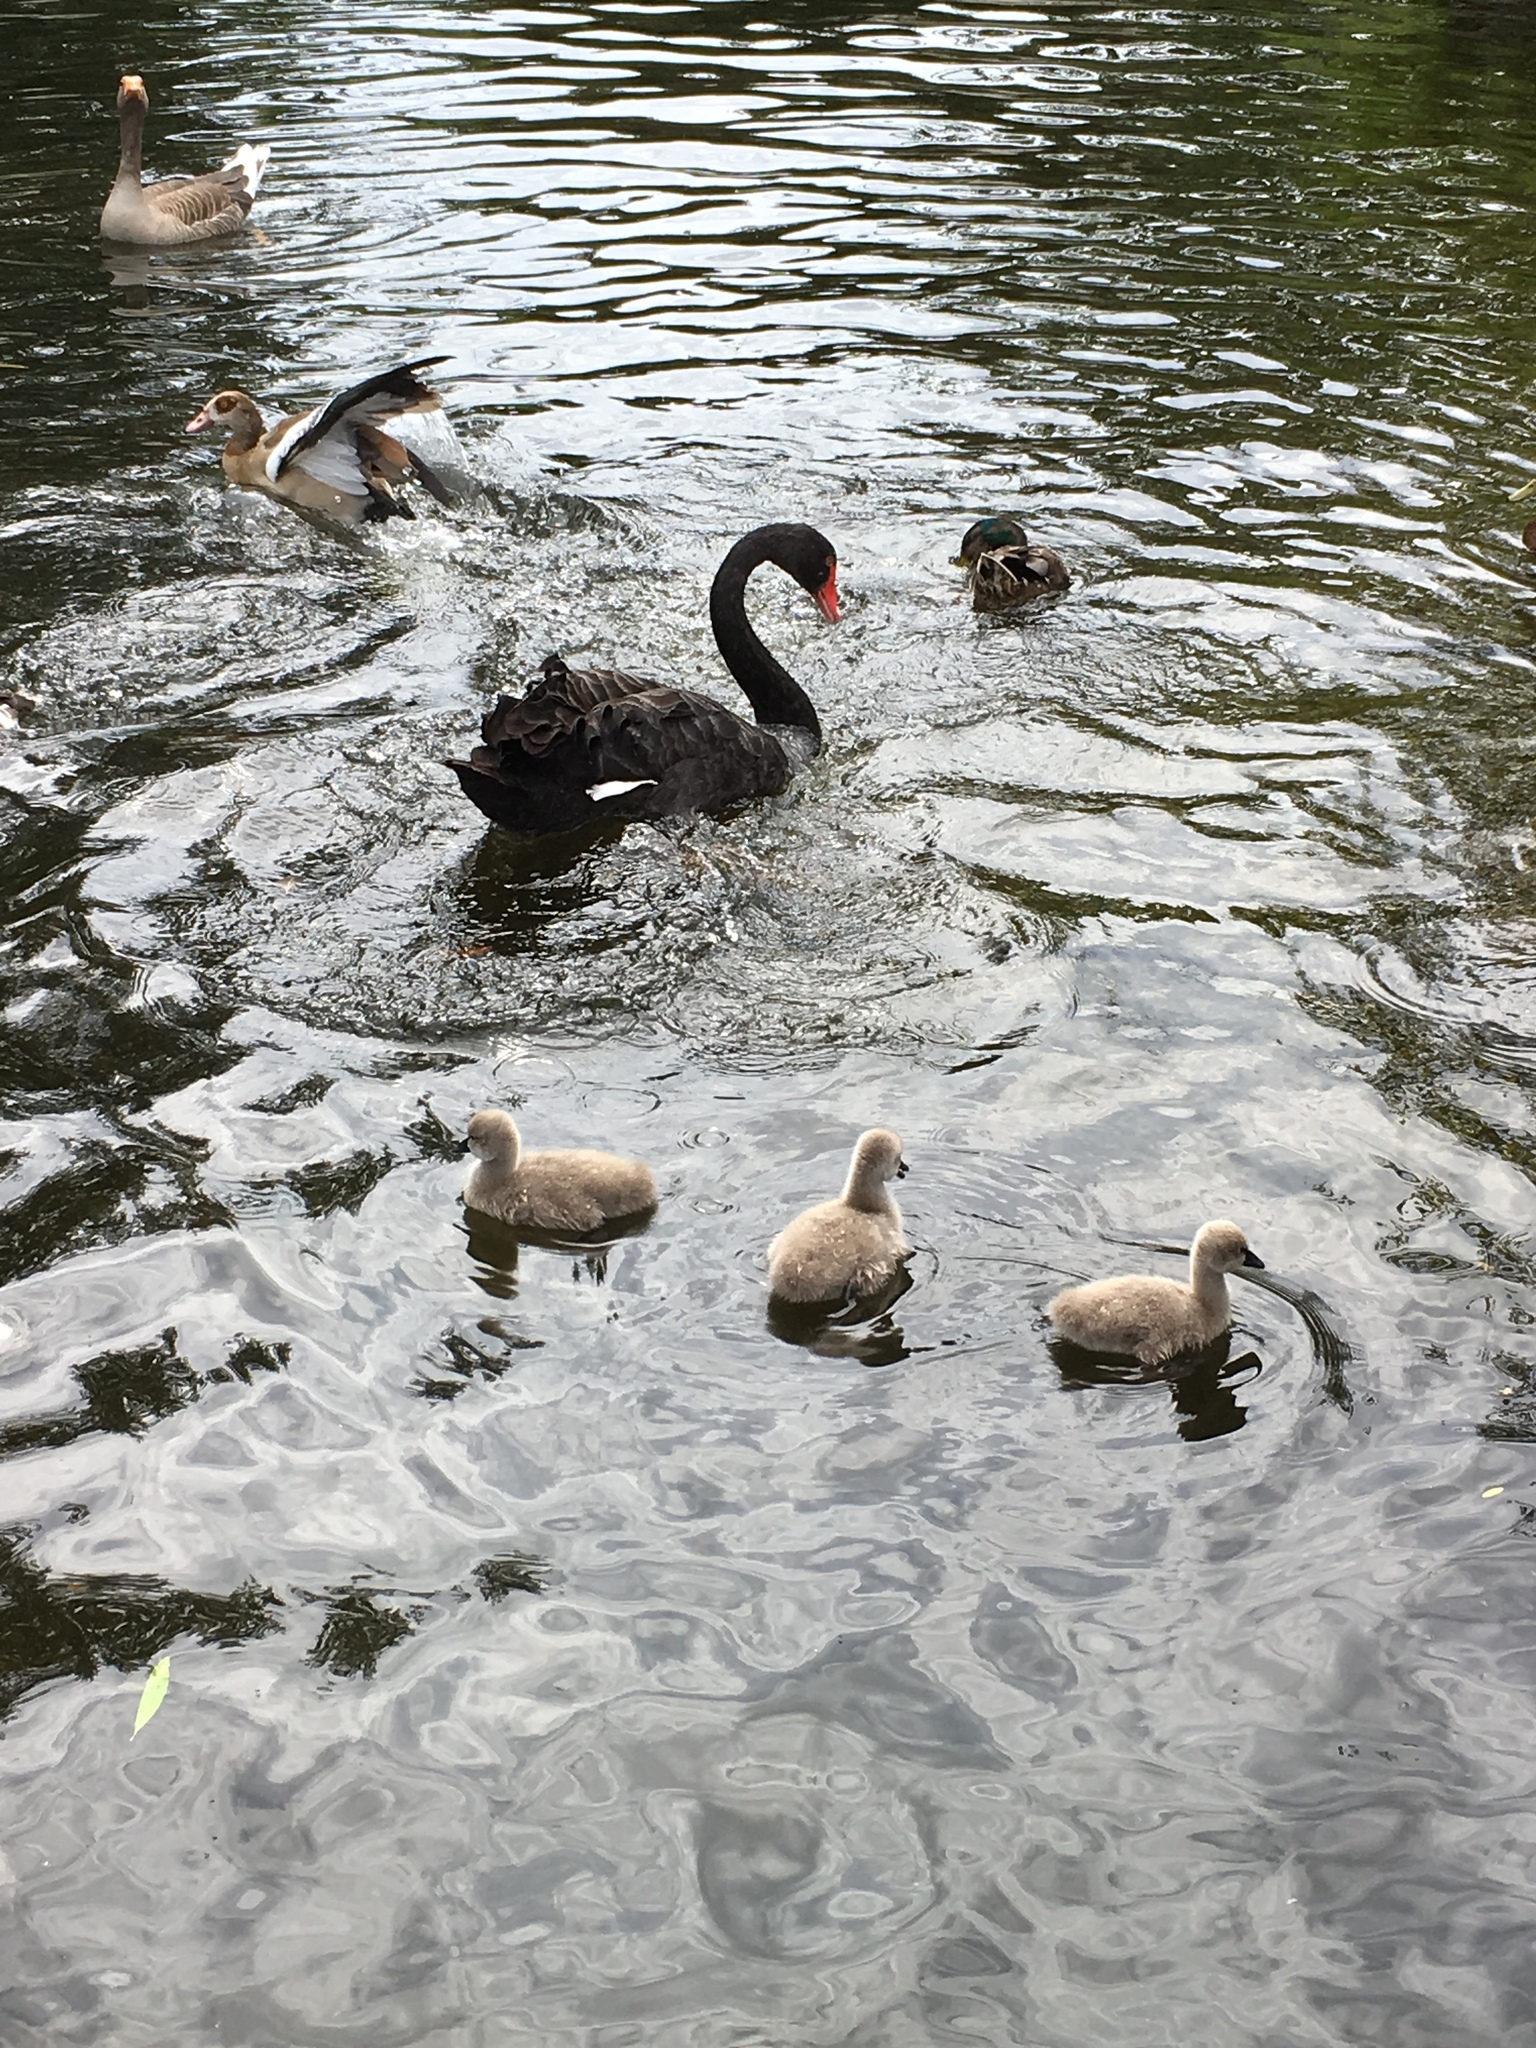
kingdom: Animalia
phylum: Chordata
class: Aves
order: Anseriformes
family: Anatidae
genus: Cygnus
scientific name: Cygnus atratus
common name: Black swan
